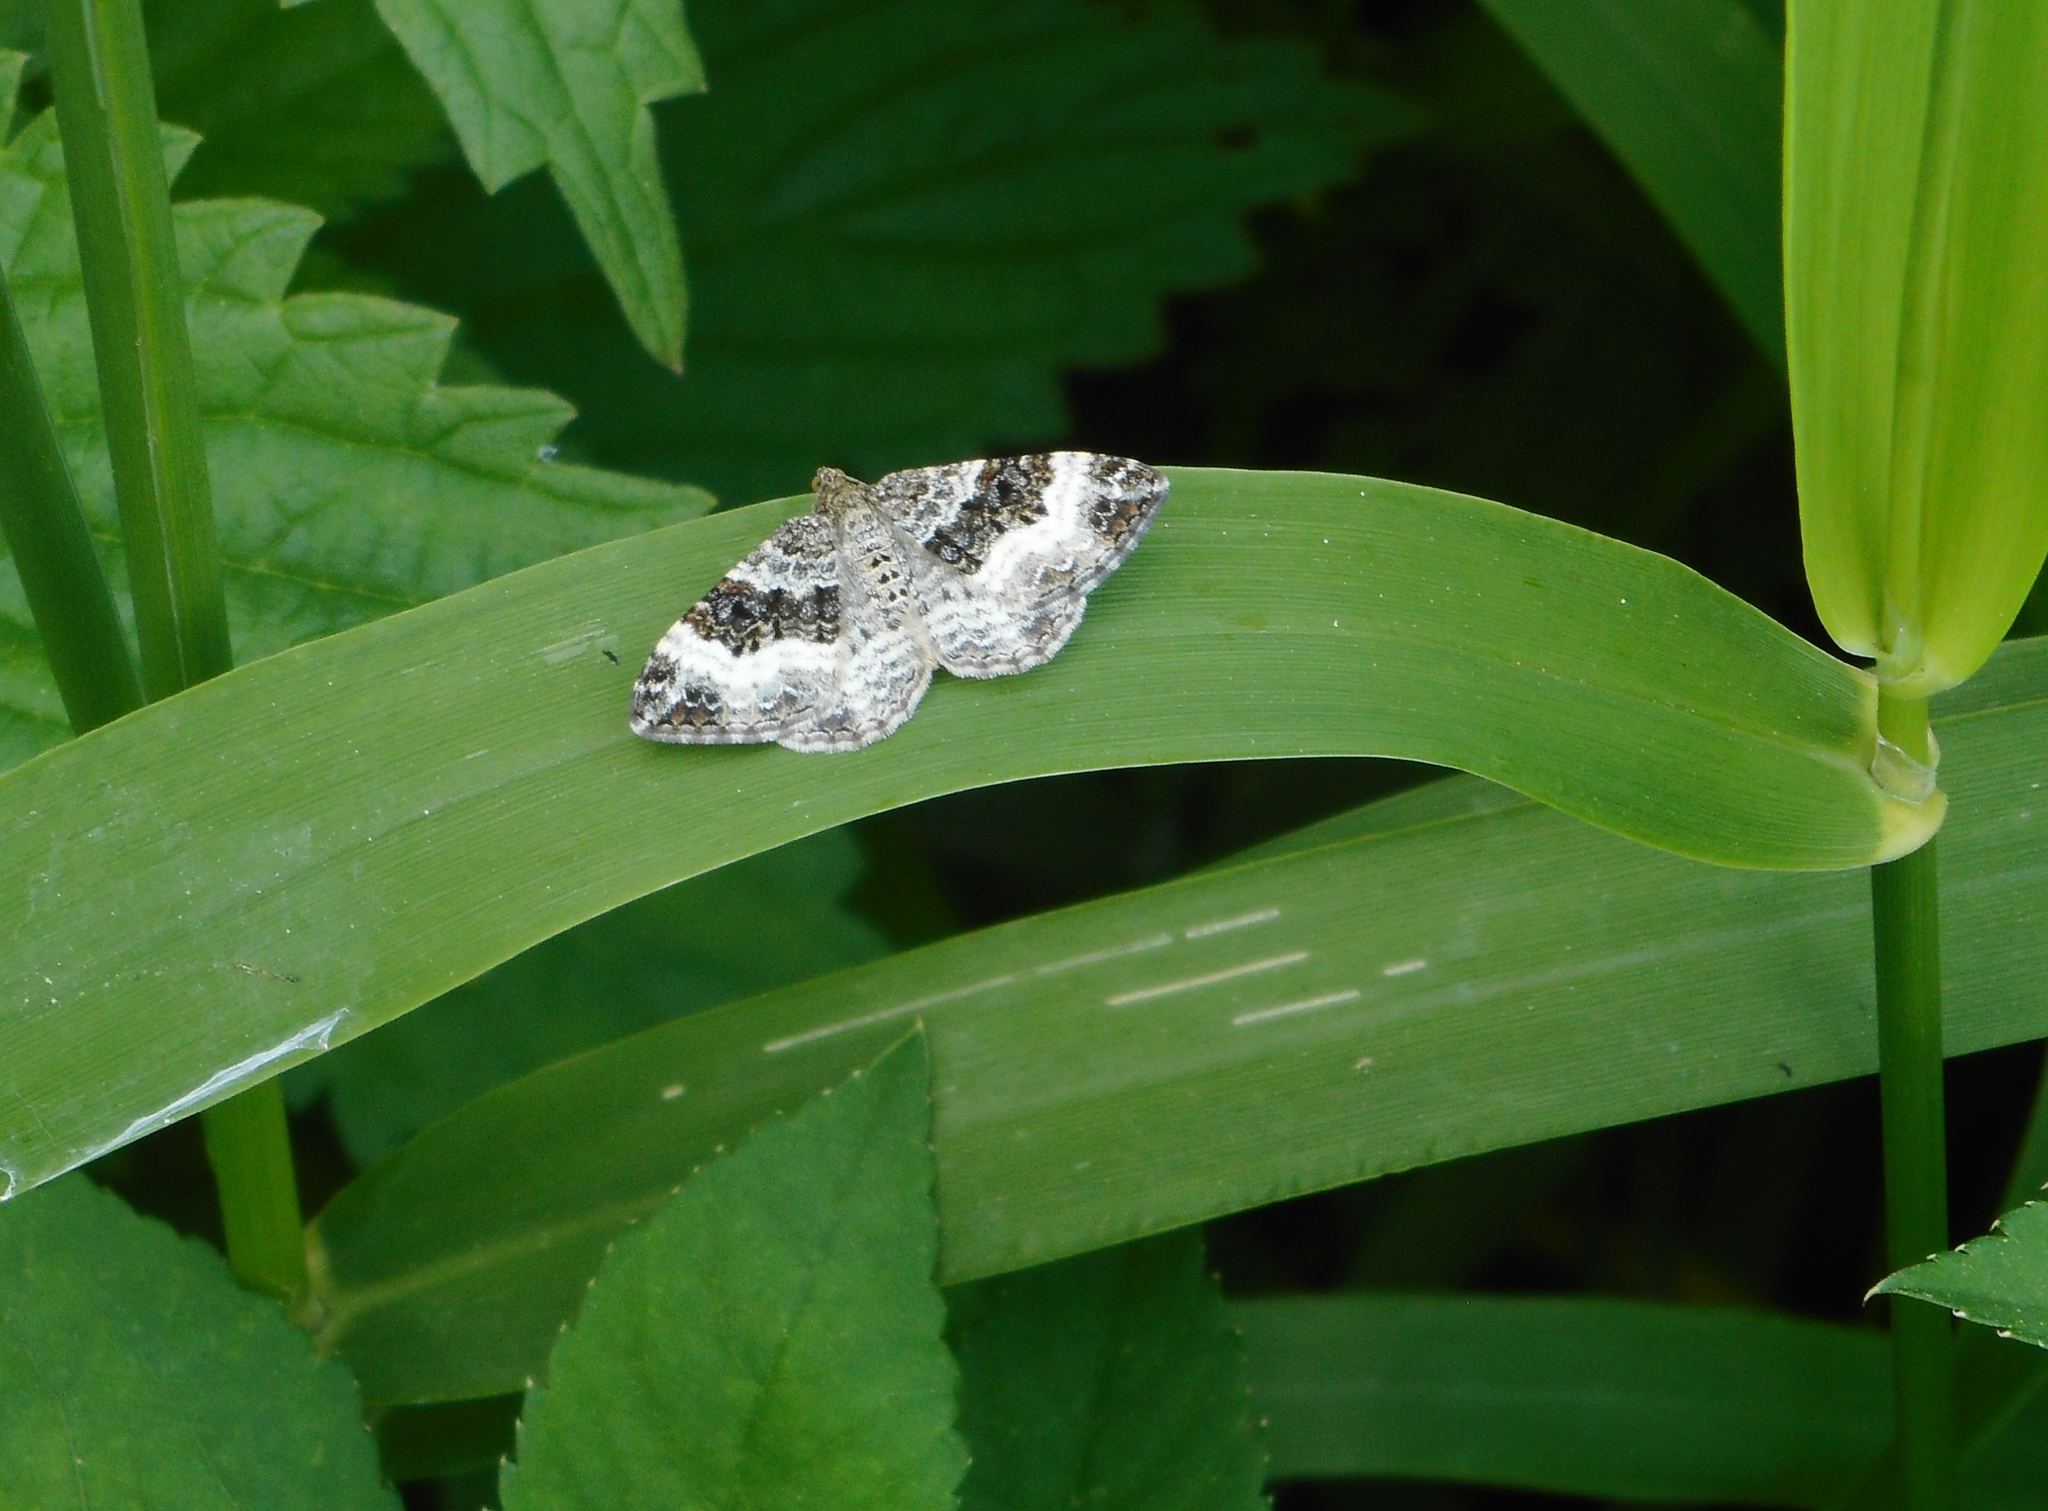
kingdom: Animalia
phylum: Arthropoda
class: Insecta
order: Lepidoptera
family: Geometridae
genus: Epirrhoe
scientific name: Epirrhoe alternata
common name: Common carpet
